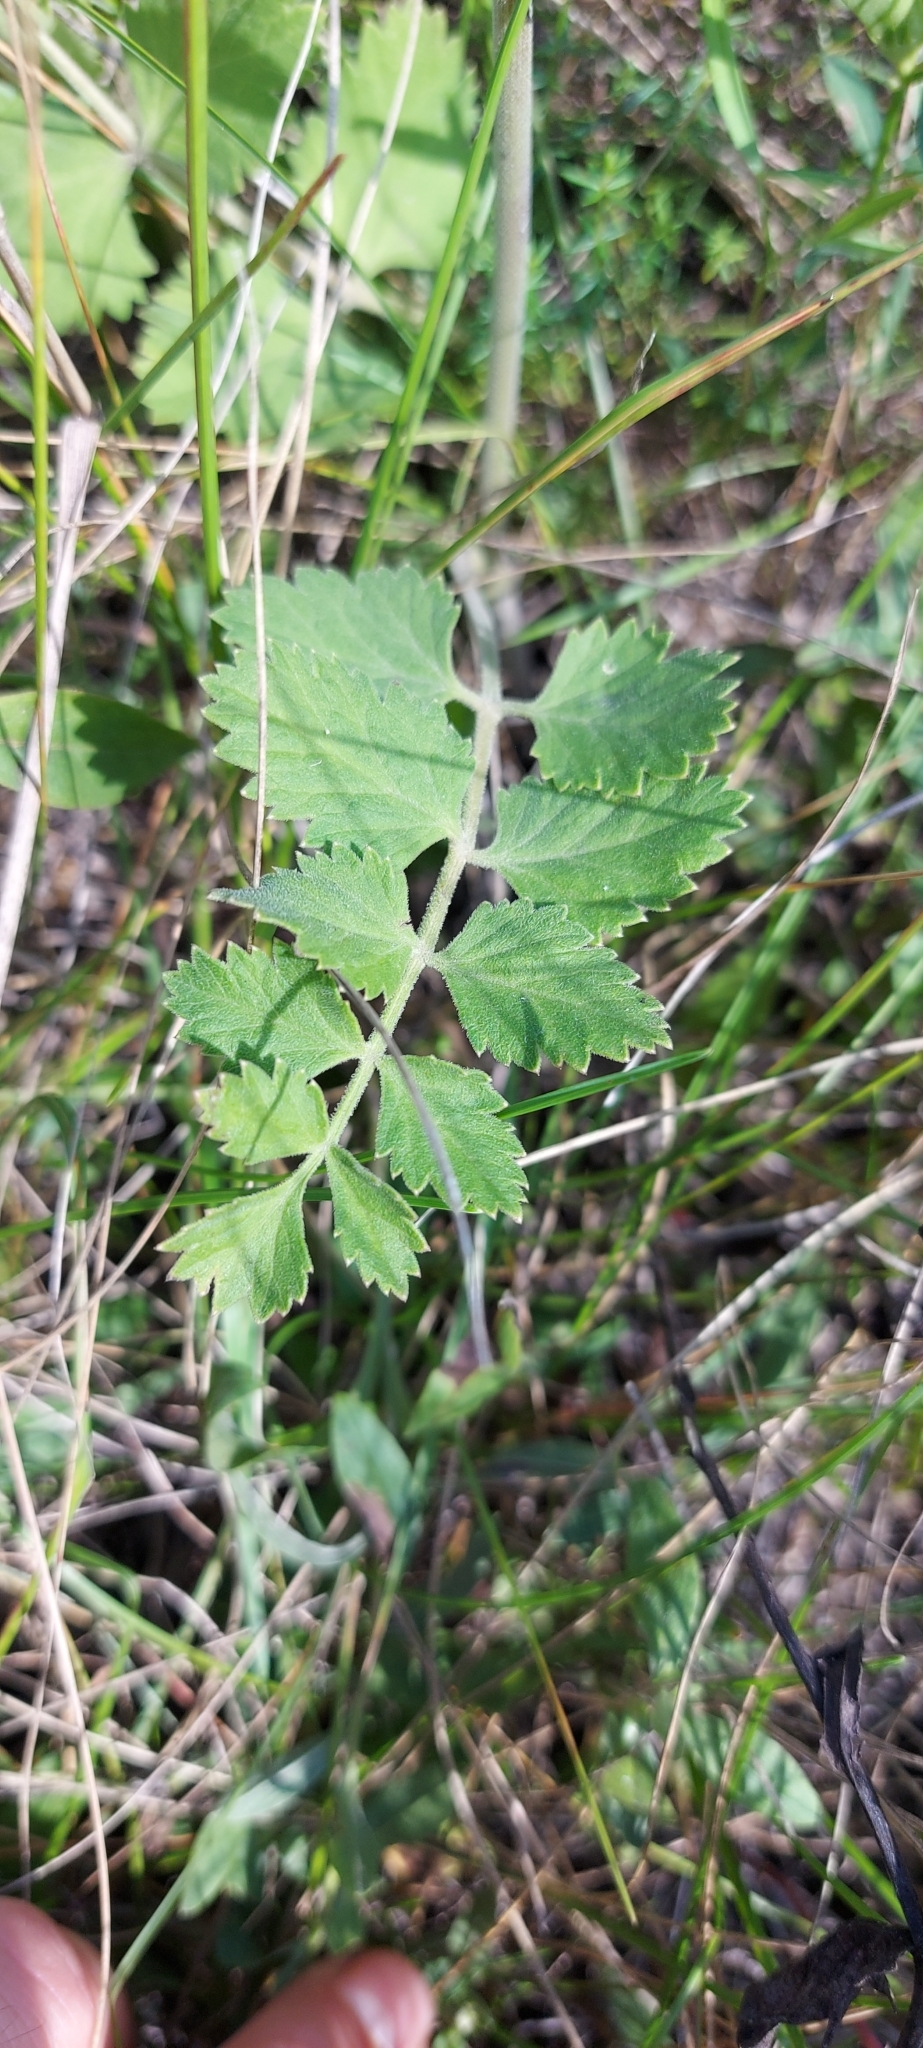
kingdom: Plantae
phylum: Tracheophyta
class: Magnoliopsida
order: Apiales
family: Apiaceae
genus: Pimpinella
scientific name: Pimpinella saxifraga
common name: Burnet-saxifrage
